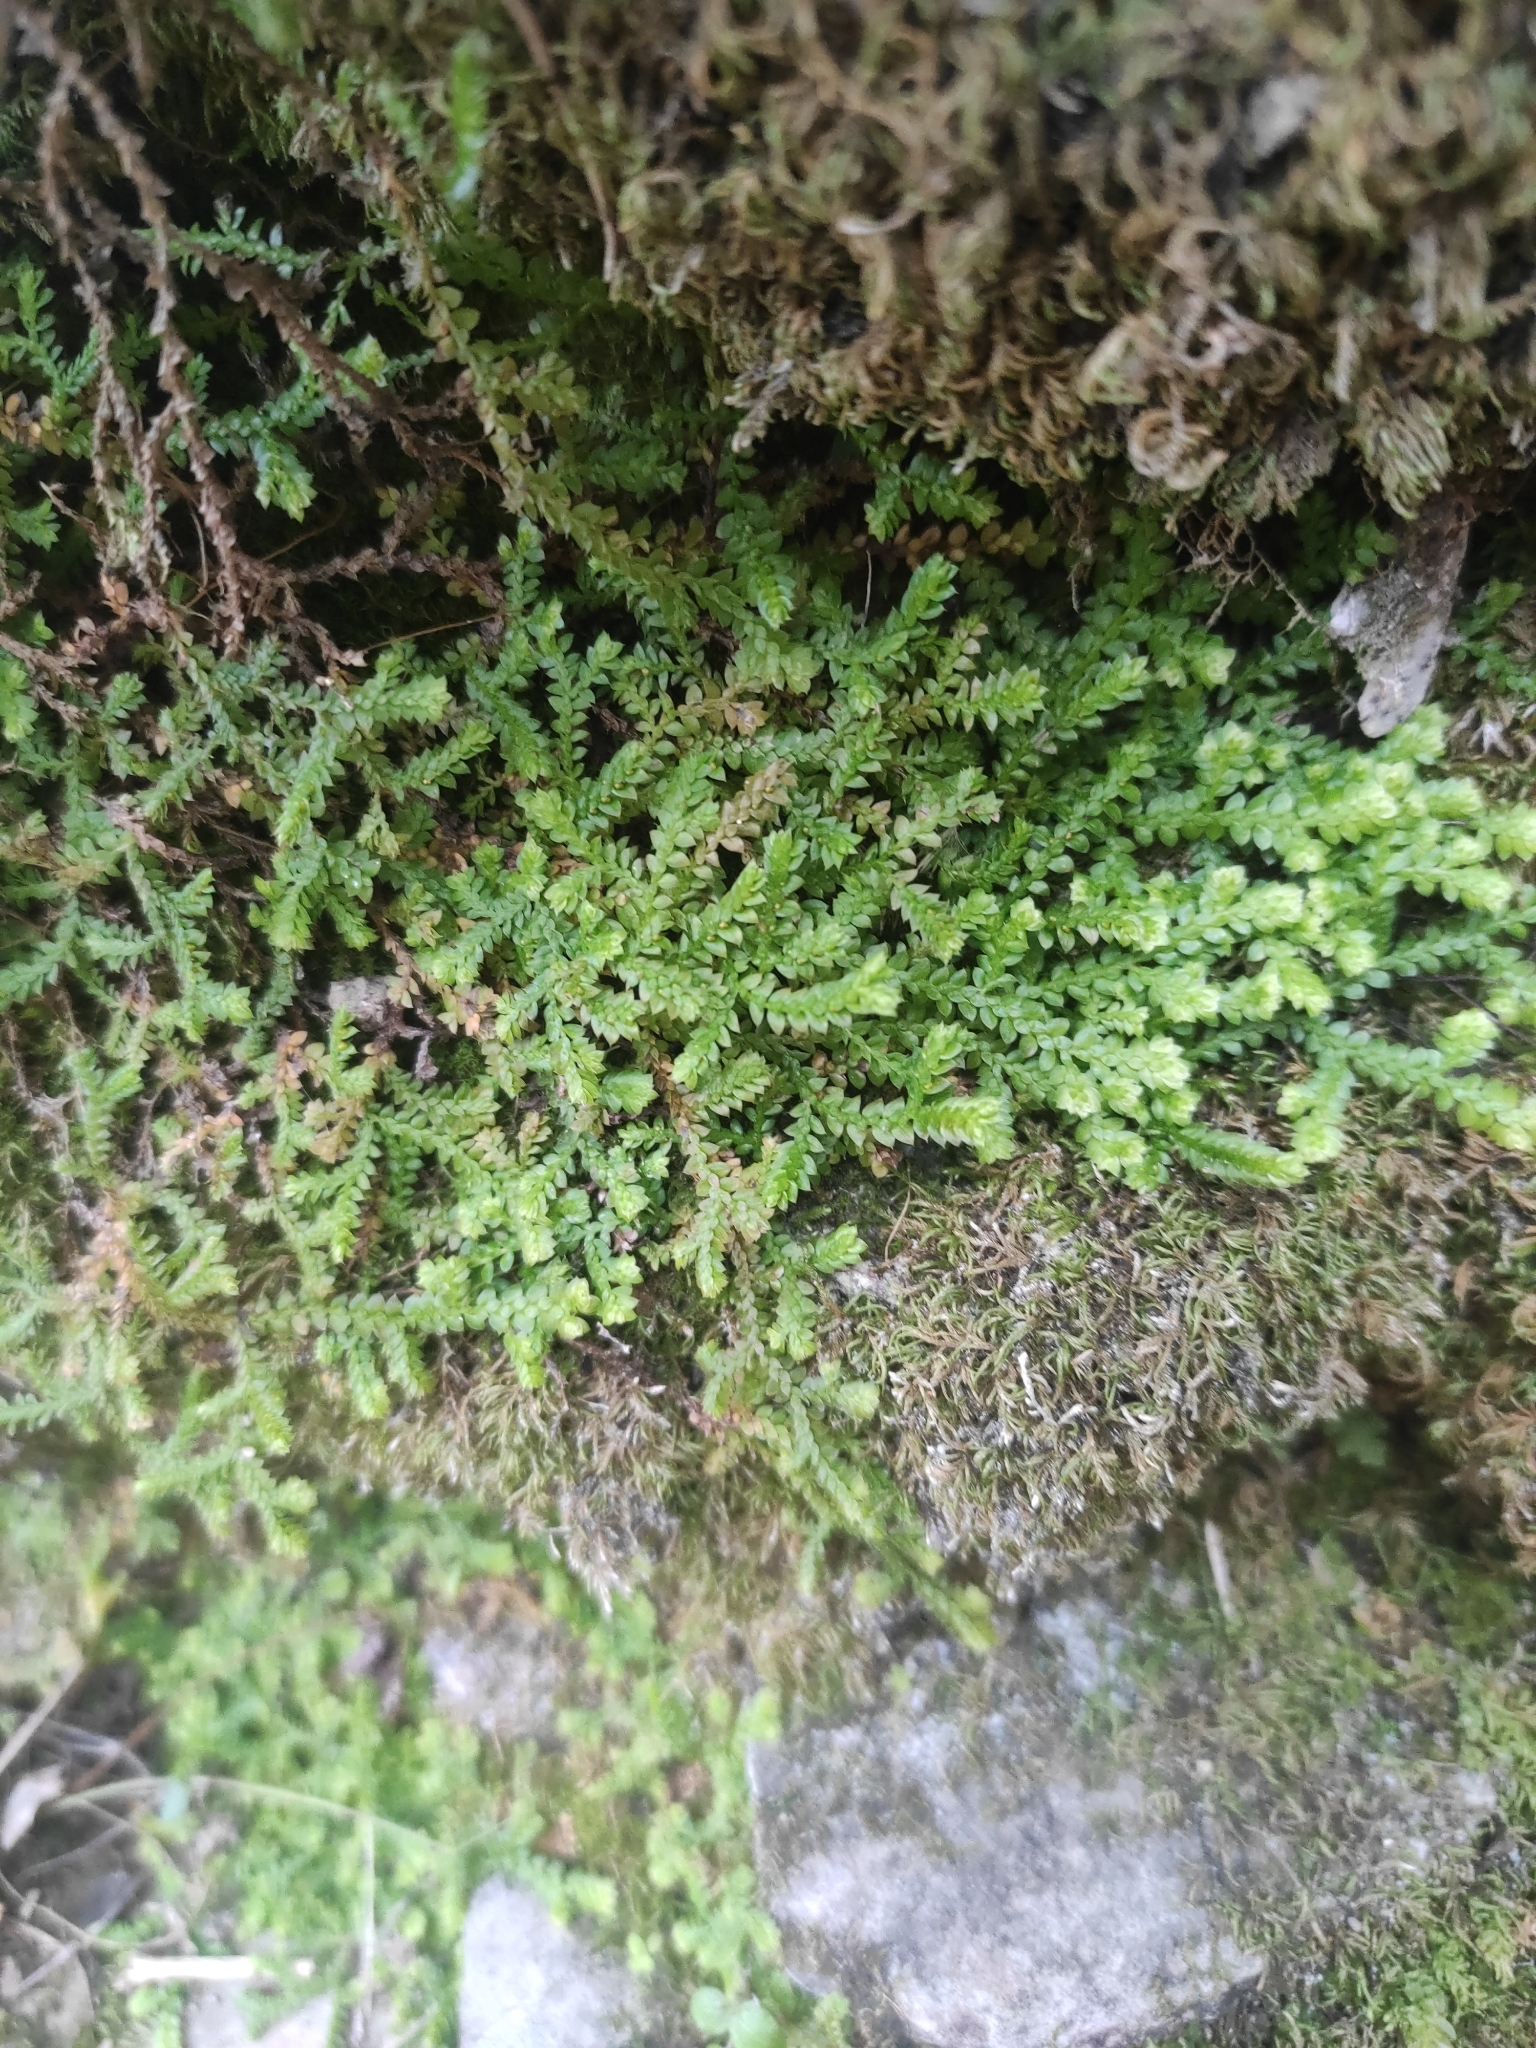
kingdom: Plantae
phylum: Tracheophyta
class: Lycopodiopsida
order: Selaginellales
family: Selaginellaceae
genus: Selaginella
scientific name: Selaginella denticulata
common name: Toothed-leaved clubmoss
